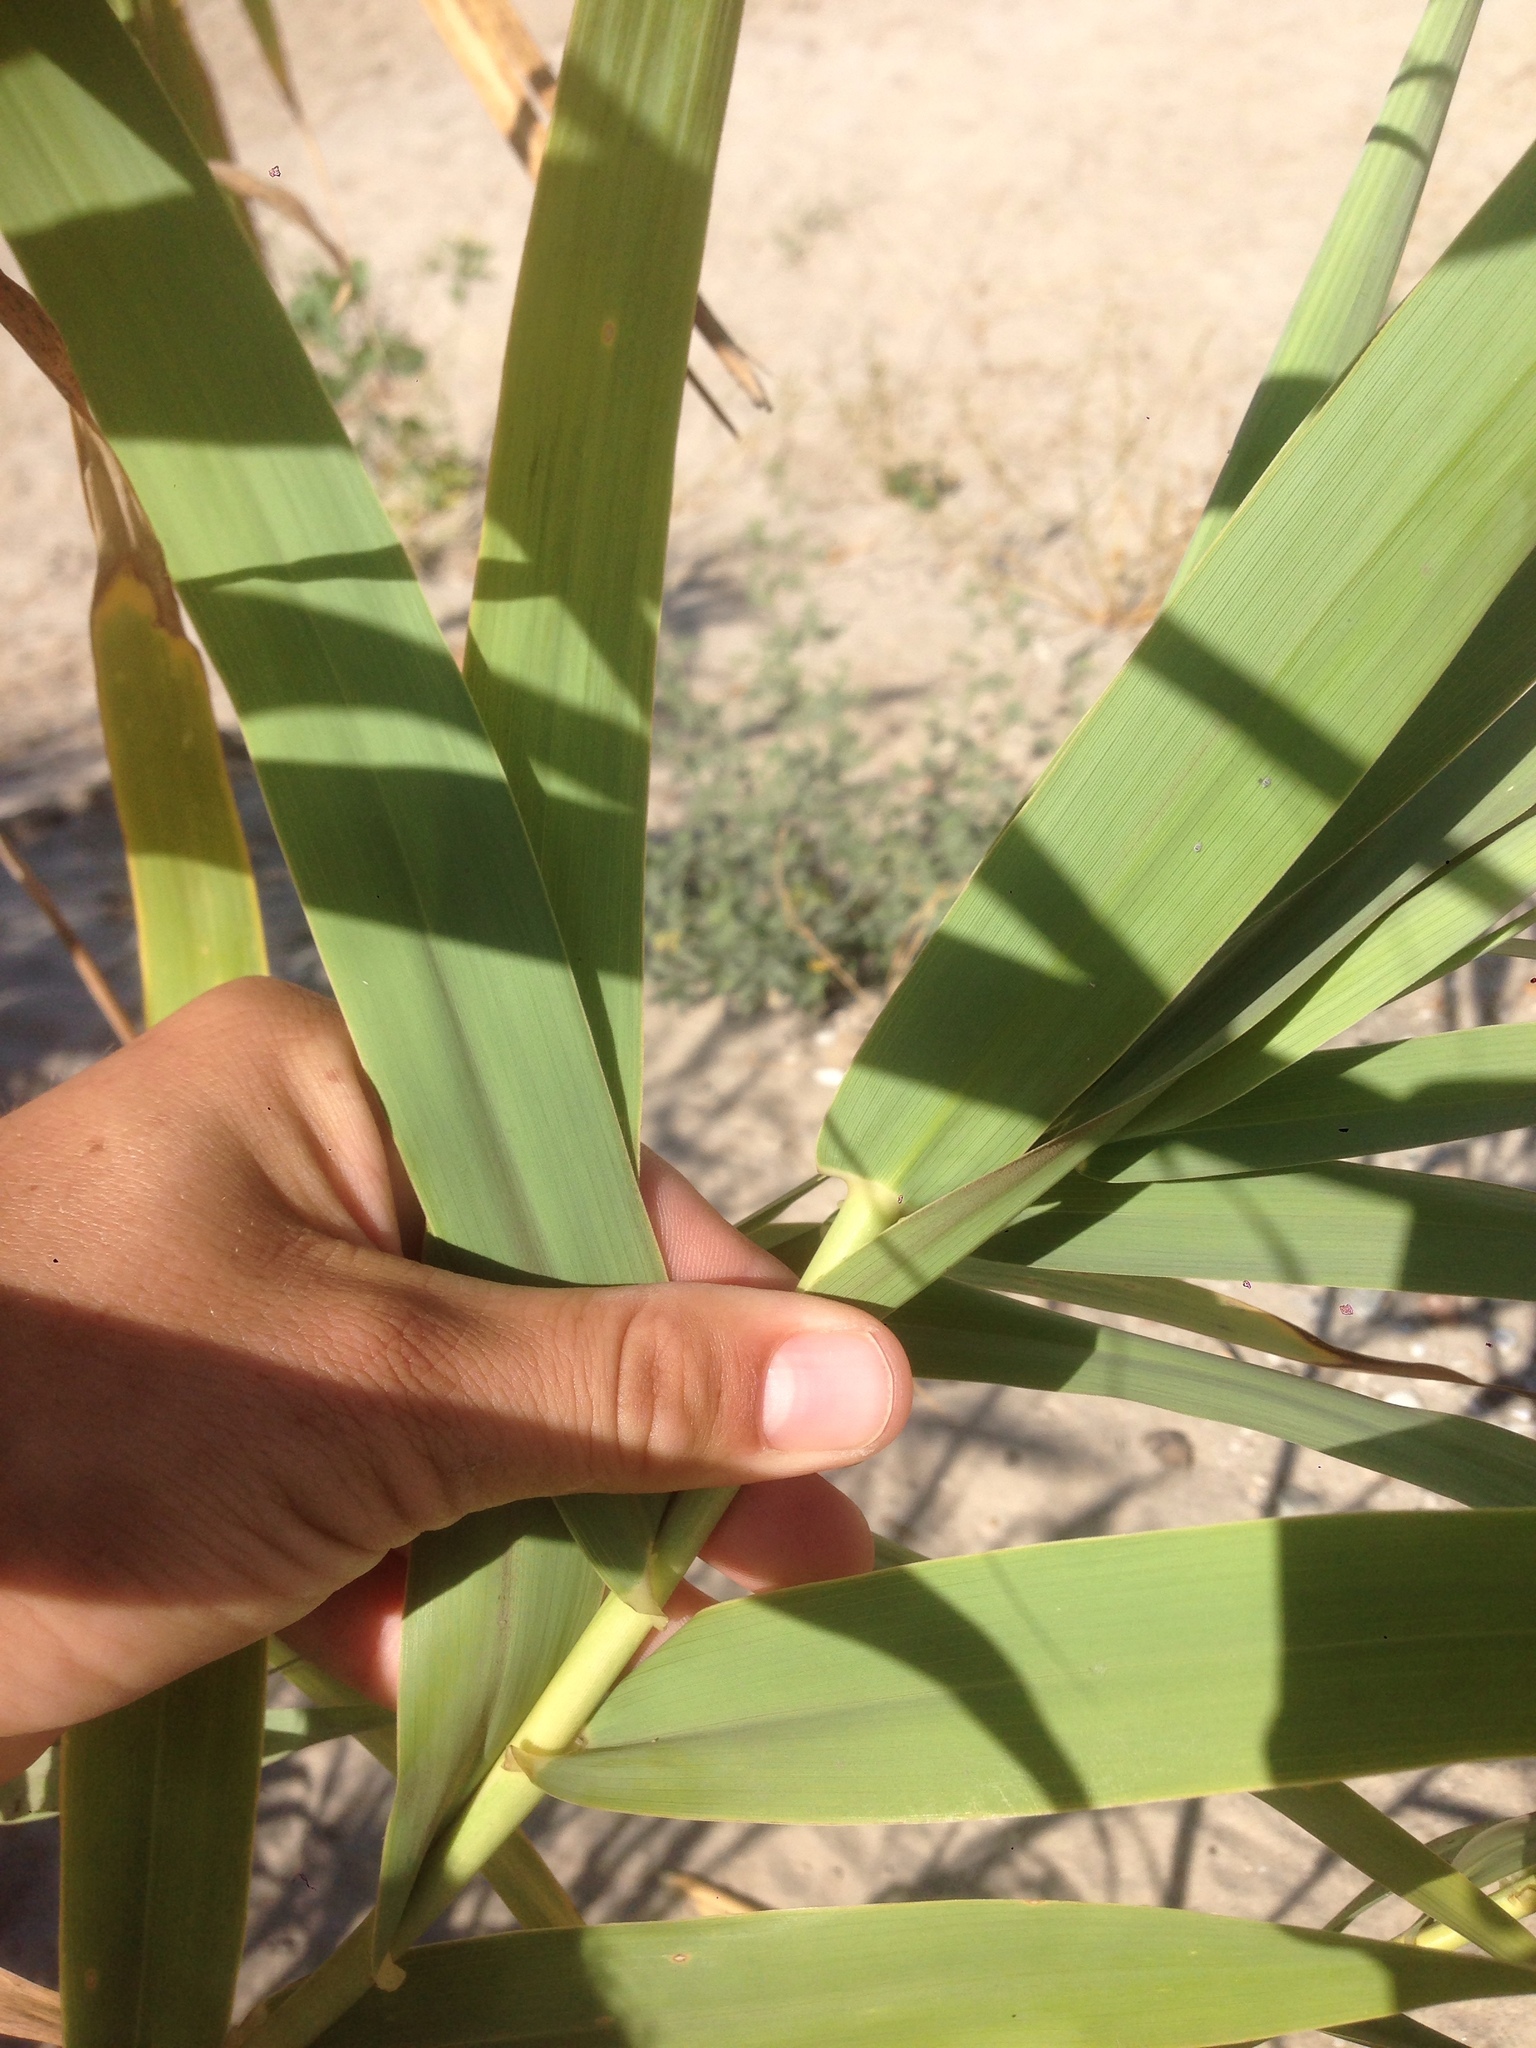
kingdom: Plantae
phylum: Tracheophyta
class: Liliopsida
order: Poales
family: Poaceae
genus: Arundo
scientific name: Arundo donax
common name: Giant reed
